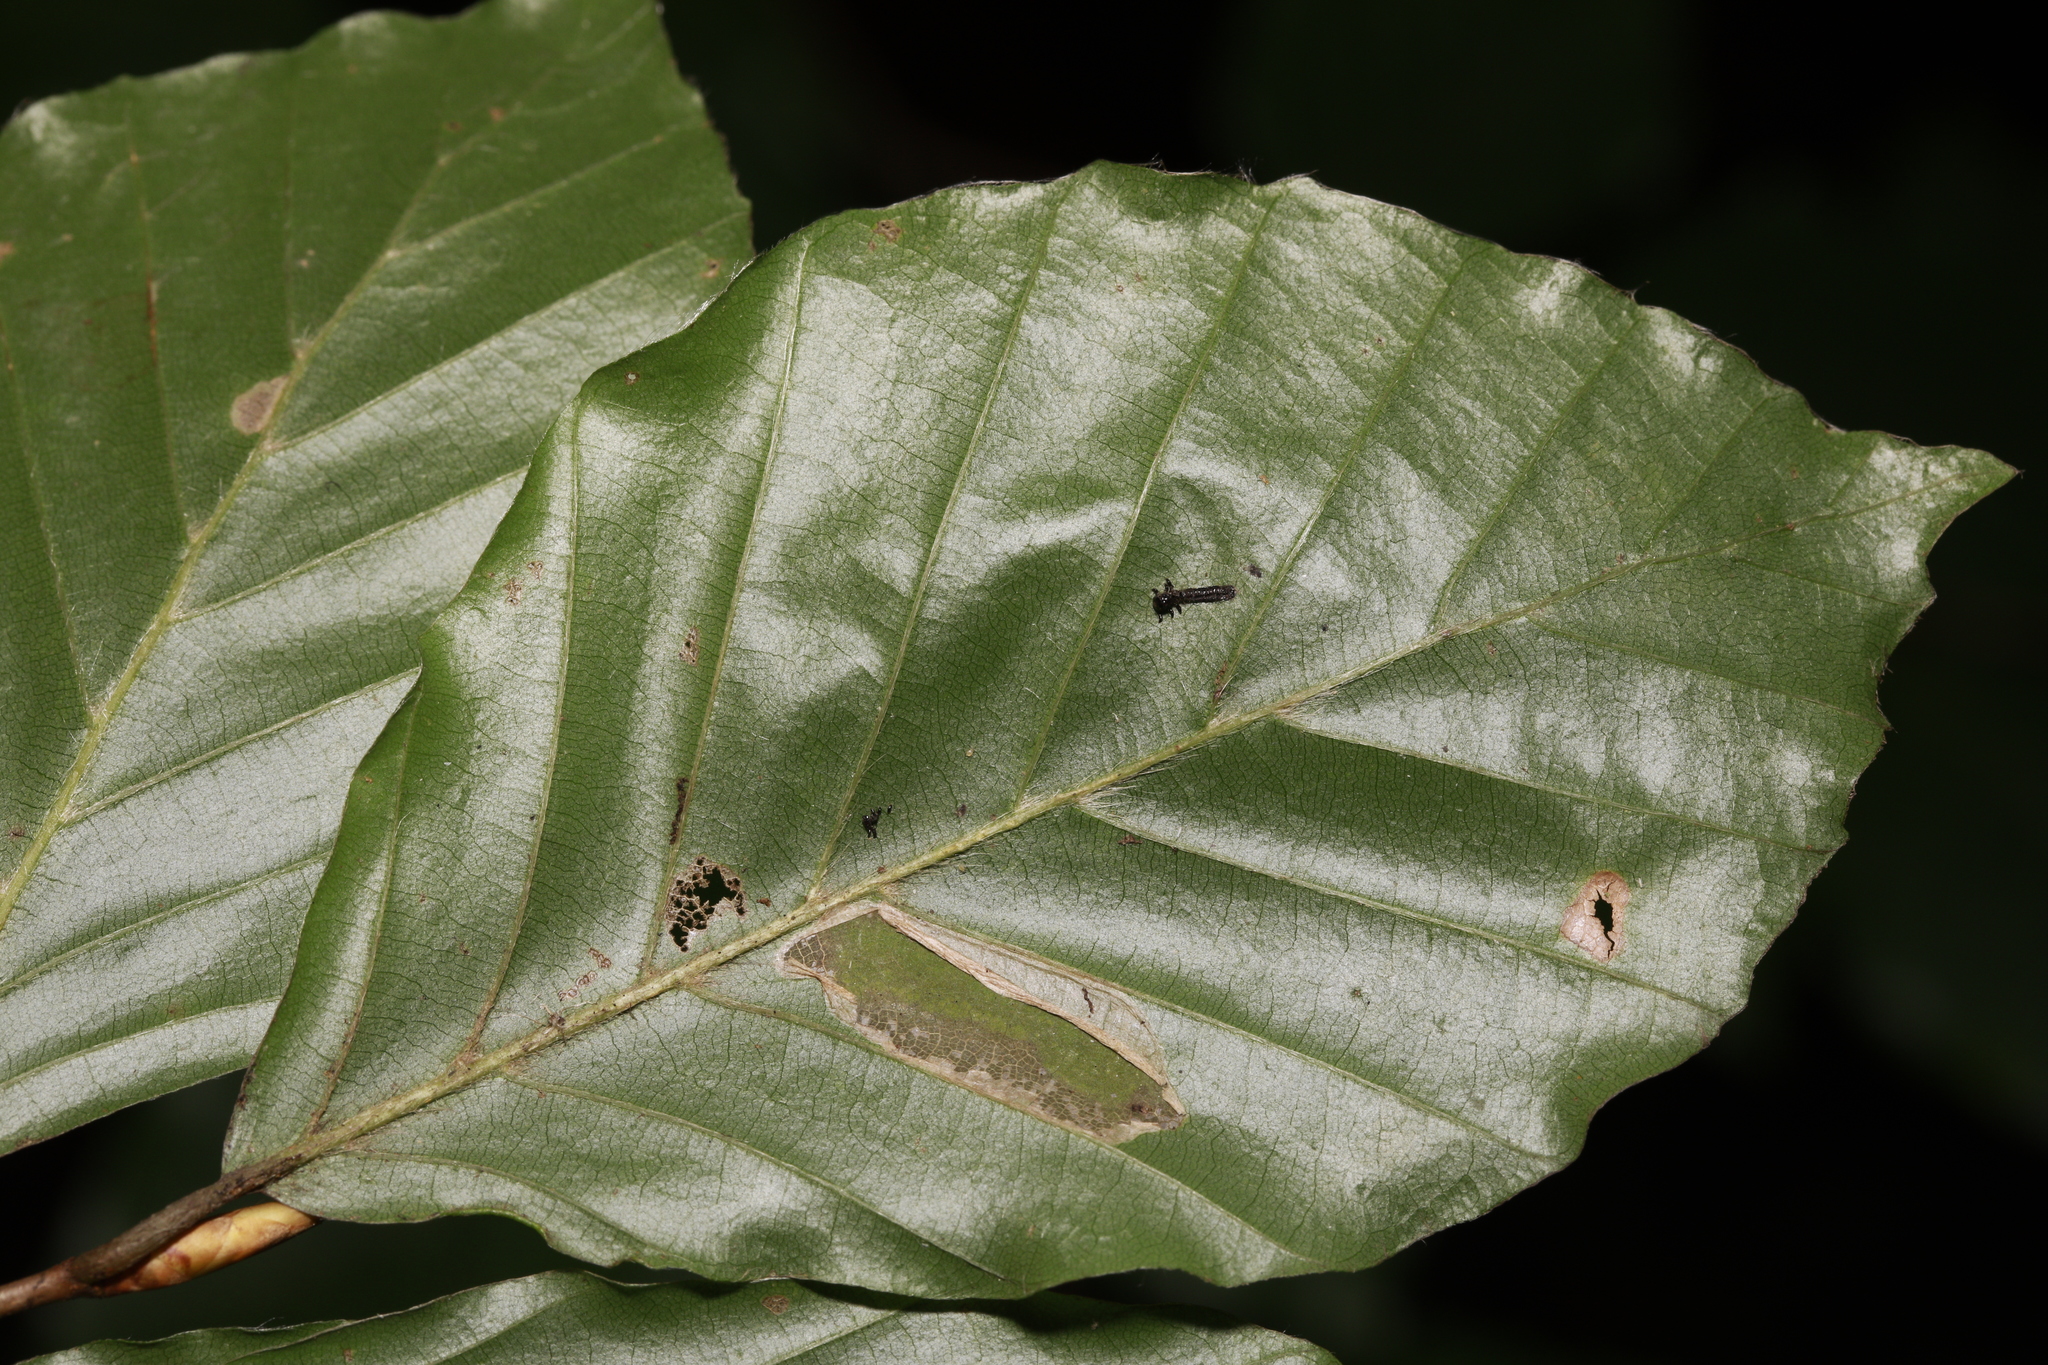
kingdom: Animalia
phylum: Arthropoda
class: Insecta
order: Lepidoptera
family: Gracillariidae
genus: Phyllonorycter
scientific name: Phyllonorycter maestingella
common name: Beech midget
